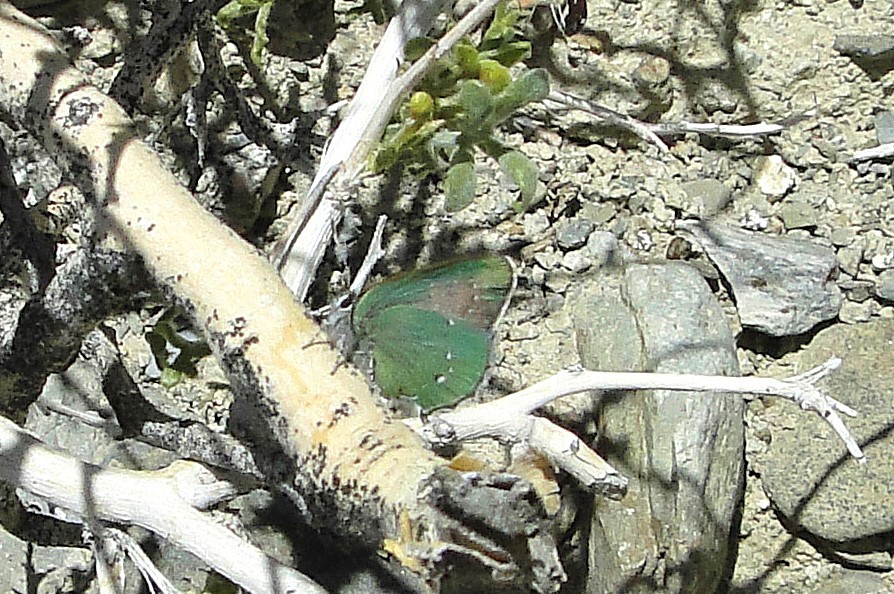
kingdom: Animalia
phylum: Arthropoda
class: Insecta
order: Lepidoptera
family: Lycaenidae
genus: Thecla
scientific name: Thecla sheridanii
